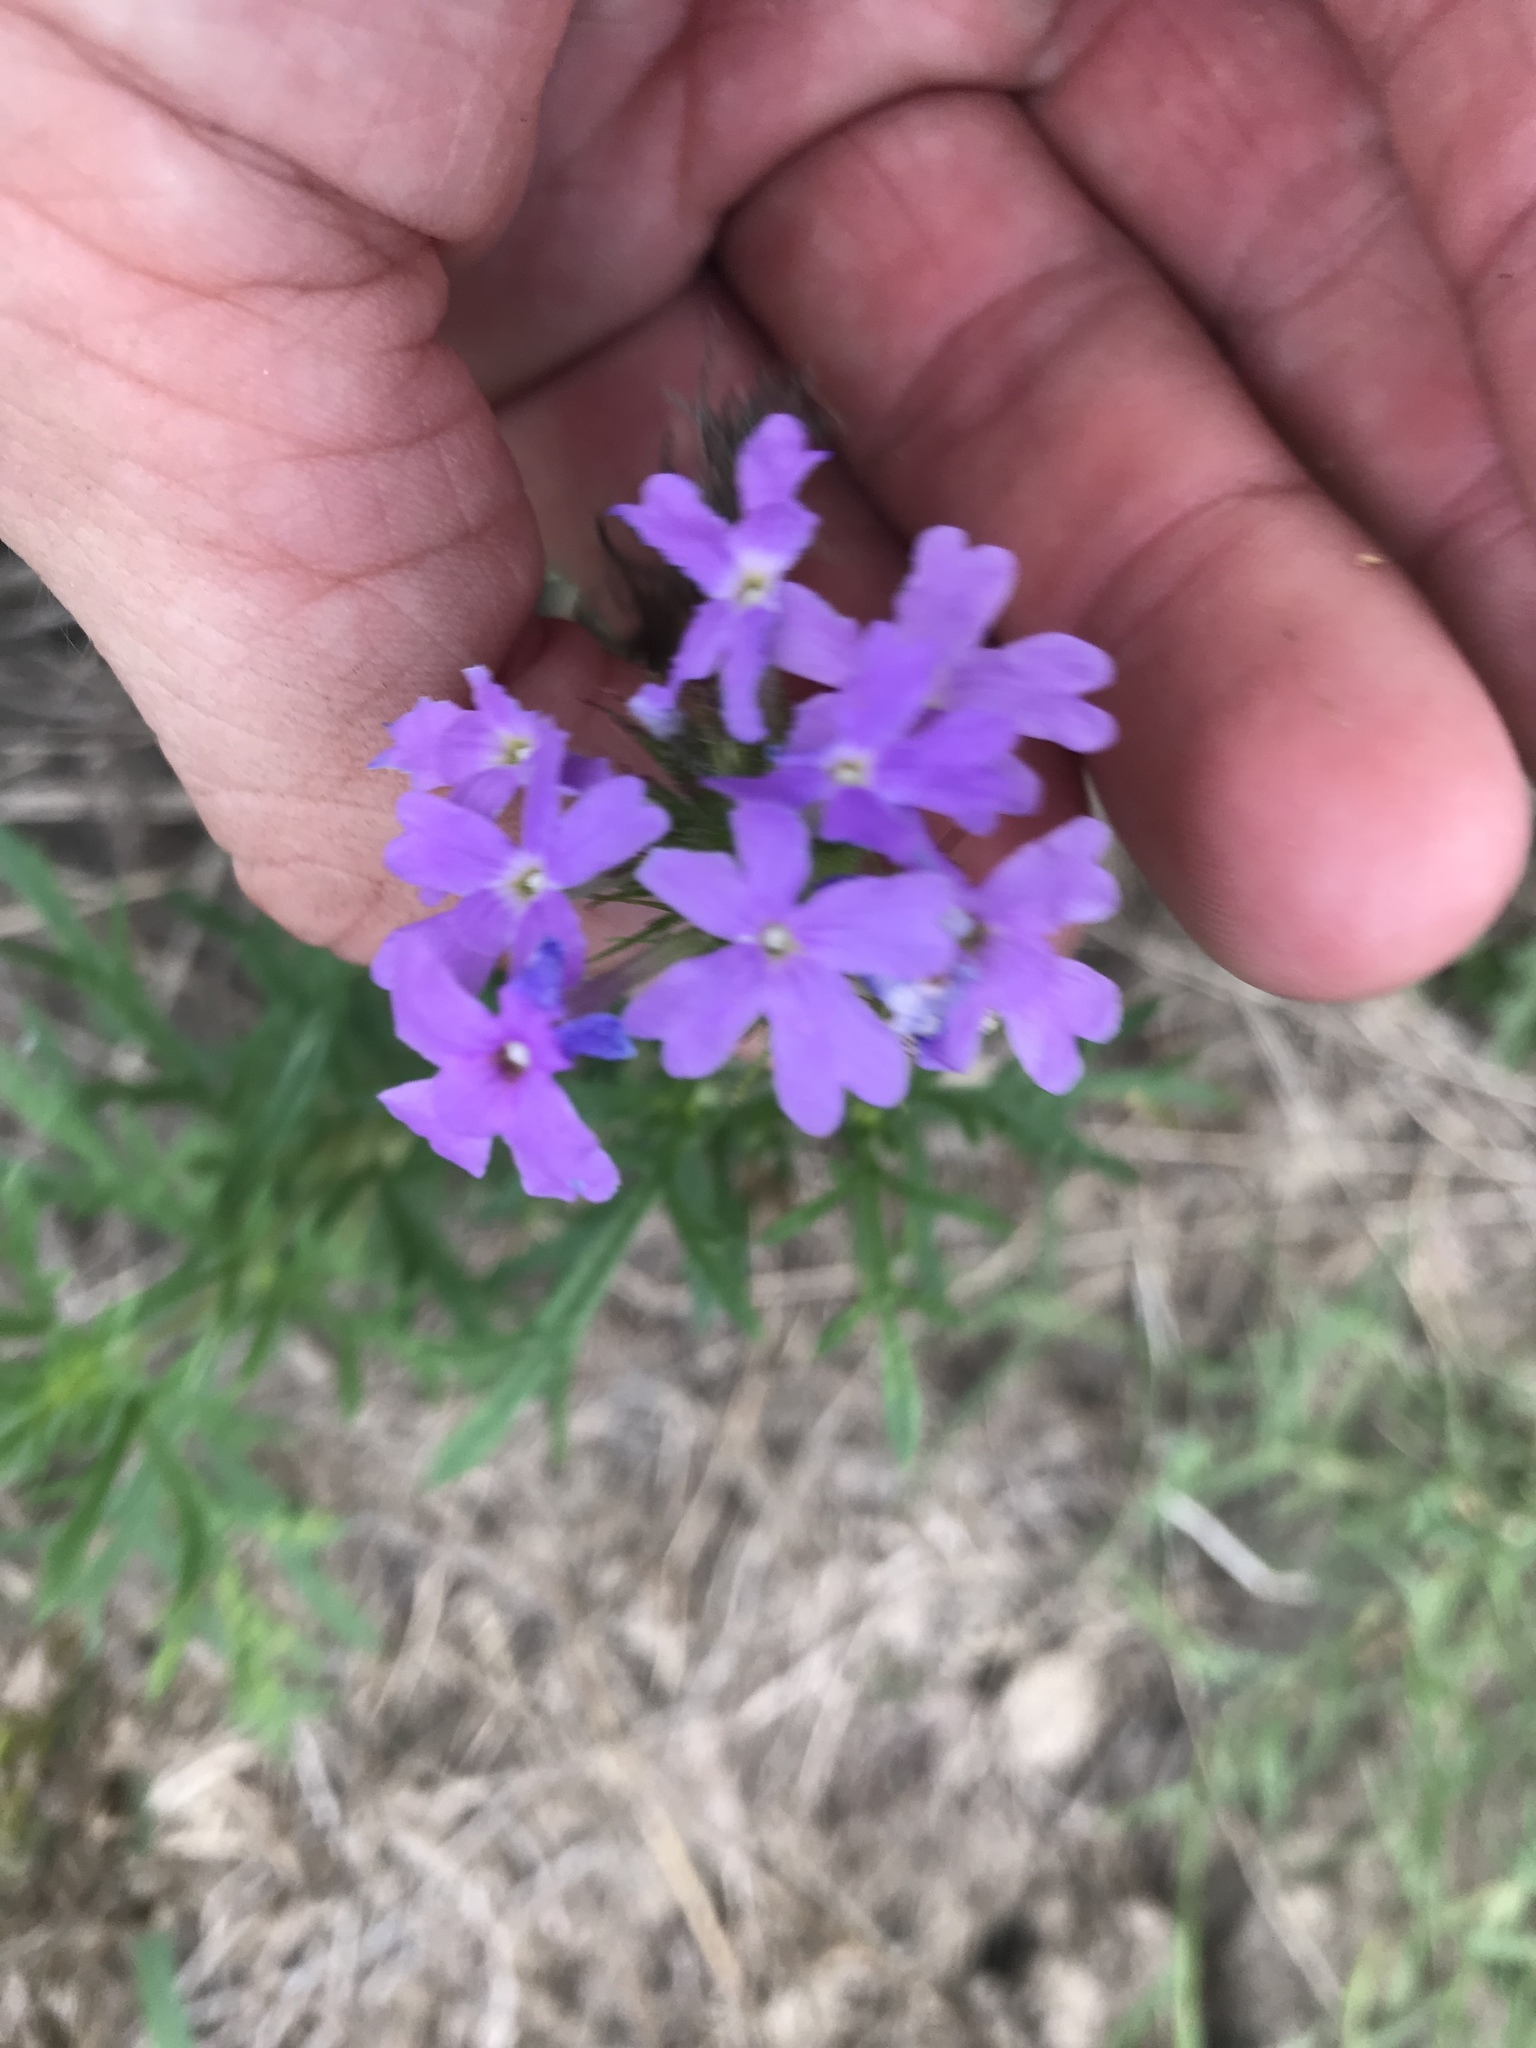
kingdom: Plantae
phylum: Tracheophyta
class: Magnoliopsida
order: Lamiales
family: Verbenaceae
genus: Verbena
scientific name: Verbena bipinnatifida
